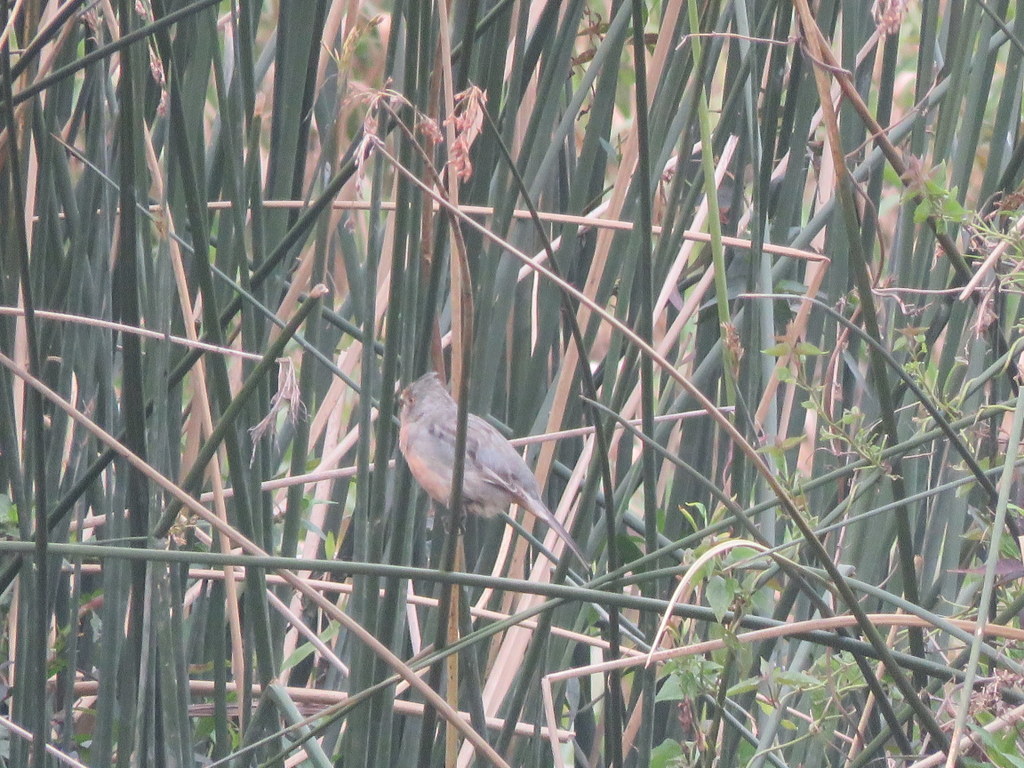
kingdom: Animalia
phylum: Chordata
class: Aves
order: Passeriformes
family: Cotingidae
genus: Phytotoma
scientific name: Phytotoma rutila
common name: White-tipped plantcutter
